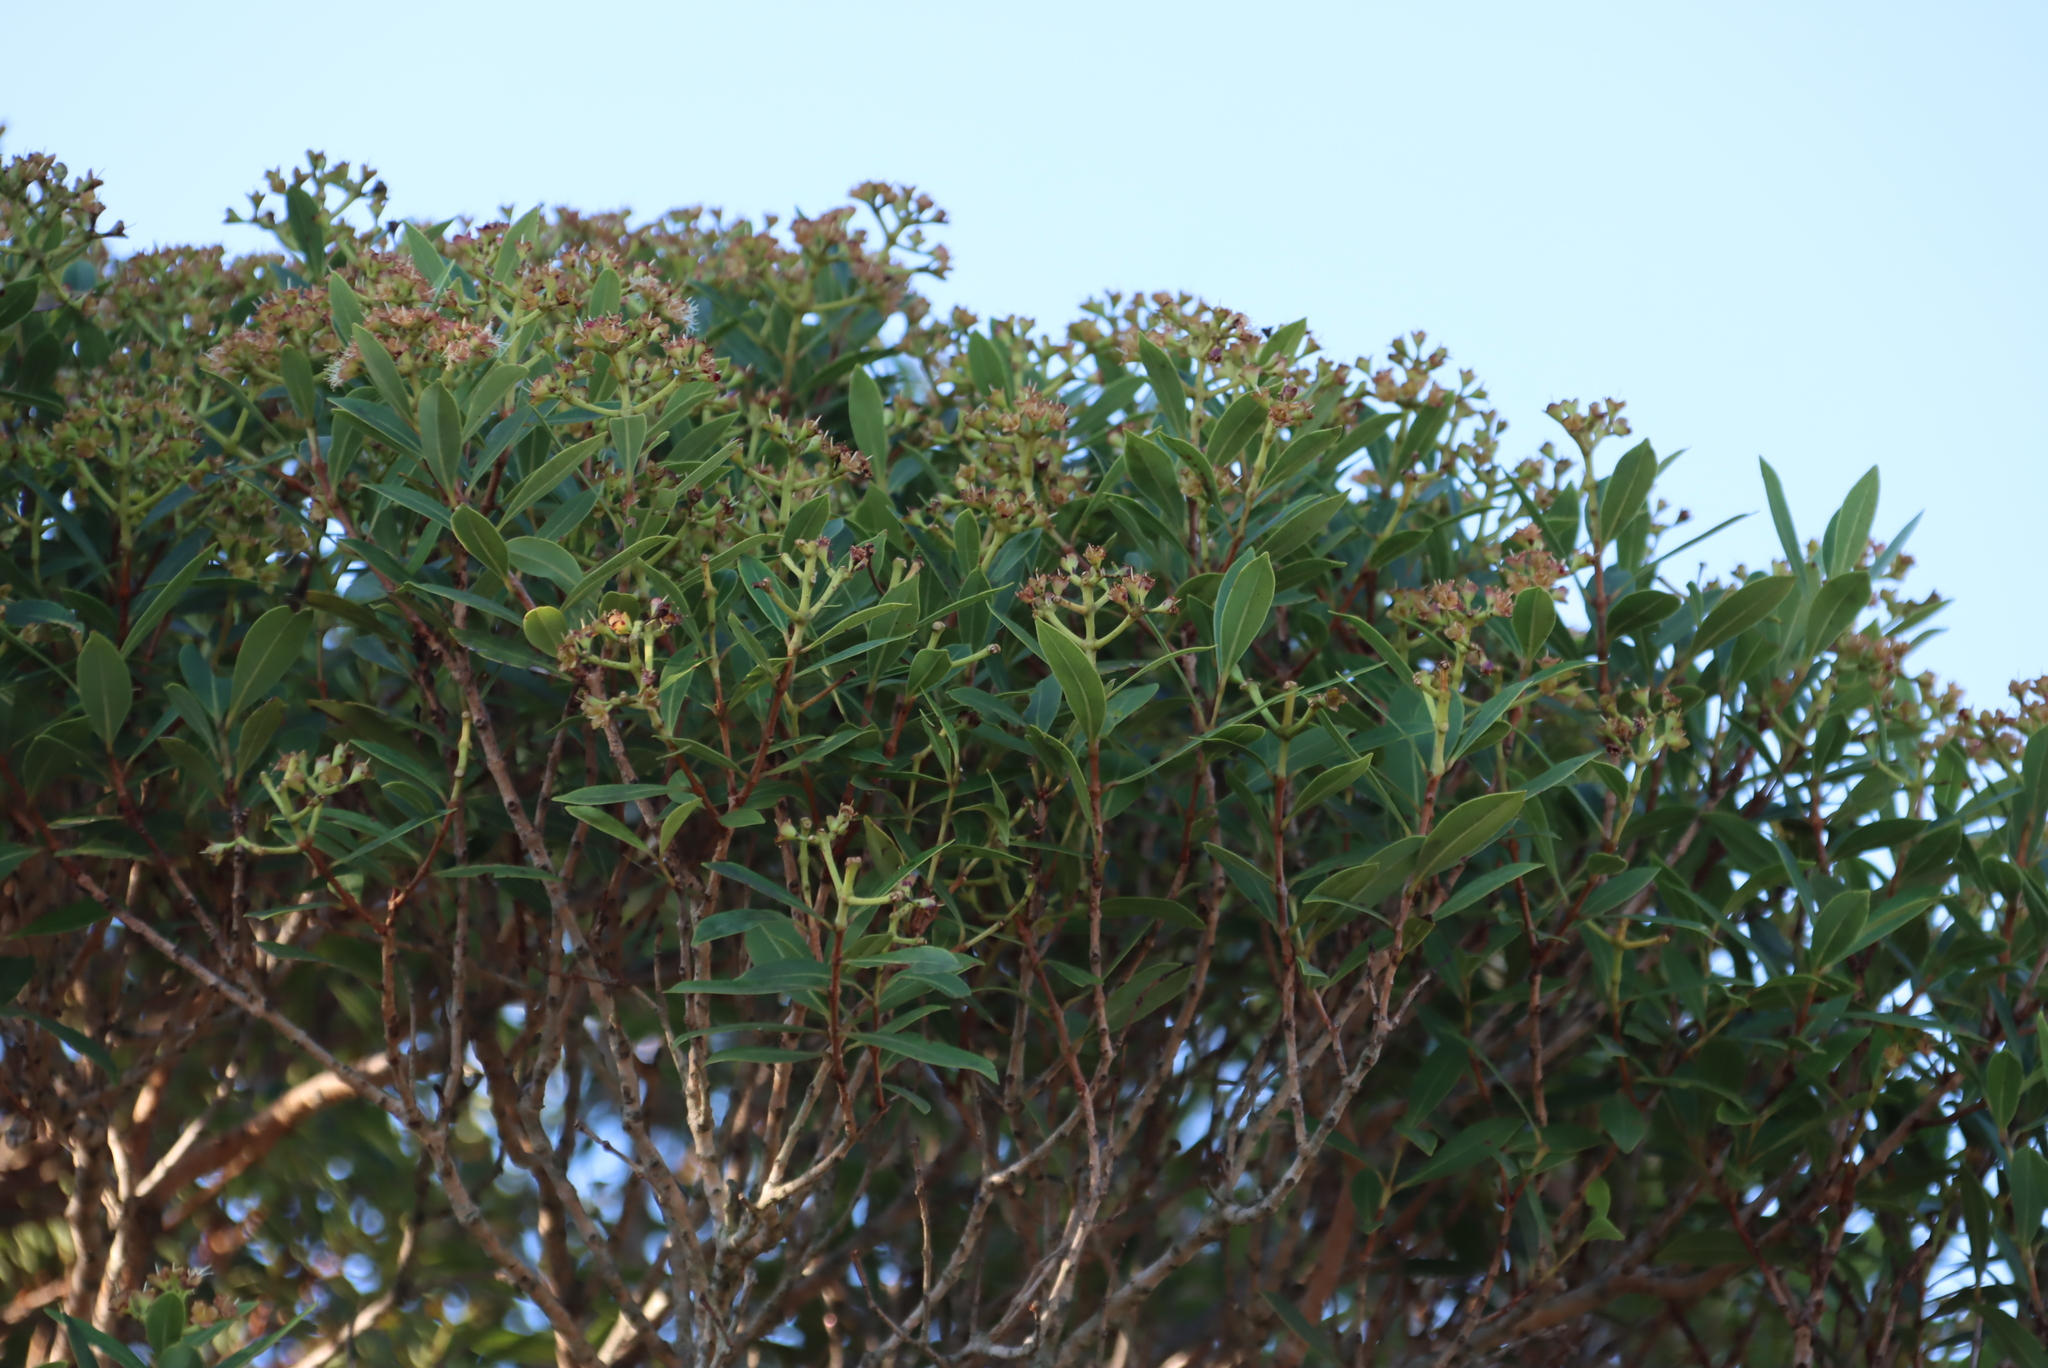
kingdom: Plantae
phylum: Tracheophyta
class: Magnoliopsida
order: Myrtales
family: Myrtaceae
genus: Syzygium
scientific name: Syzygium legatii
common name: Mountain waterberry
